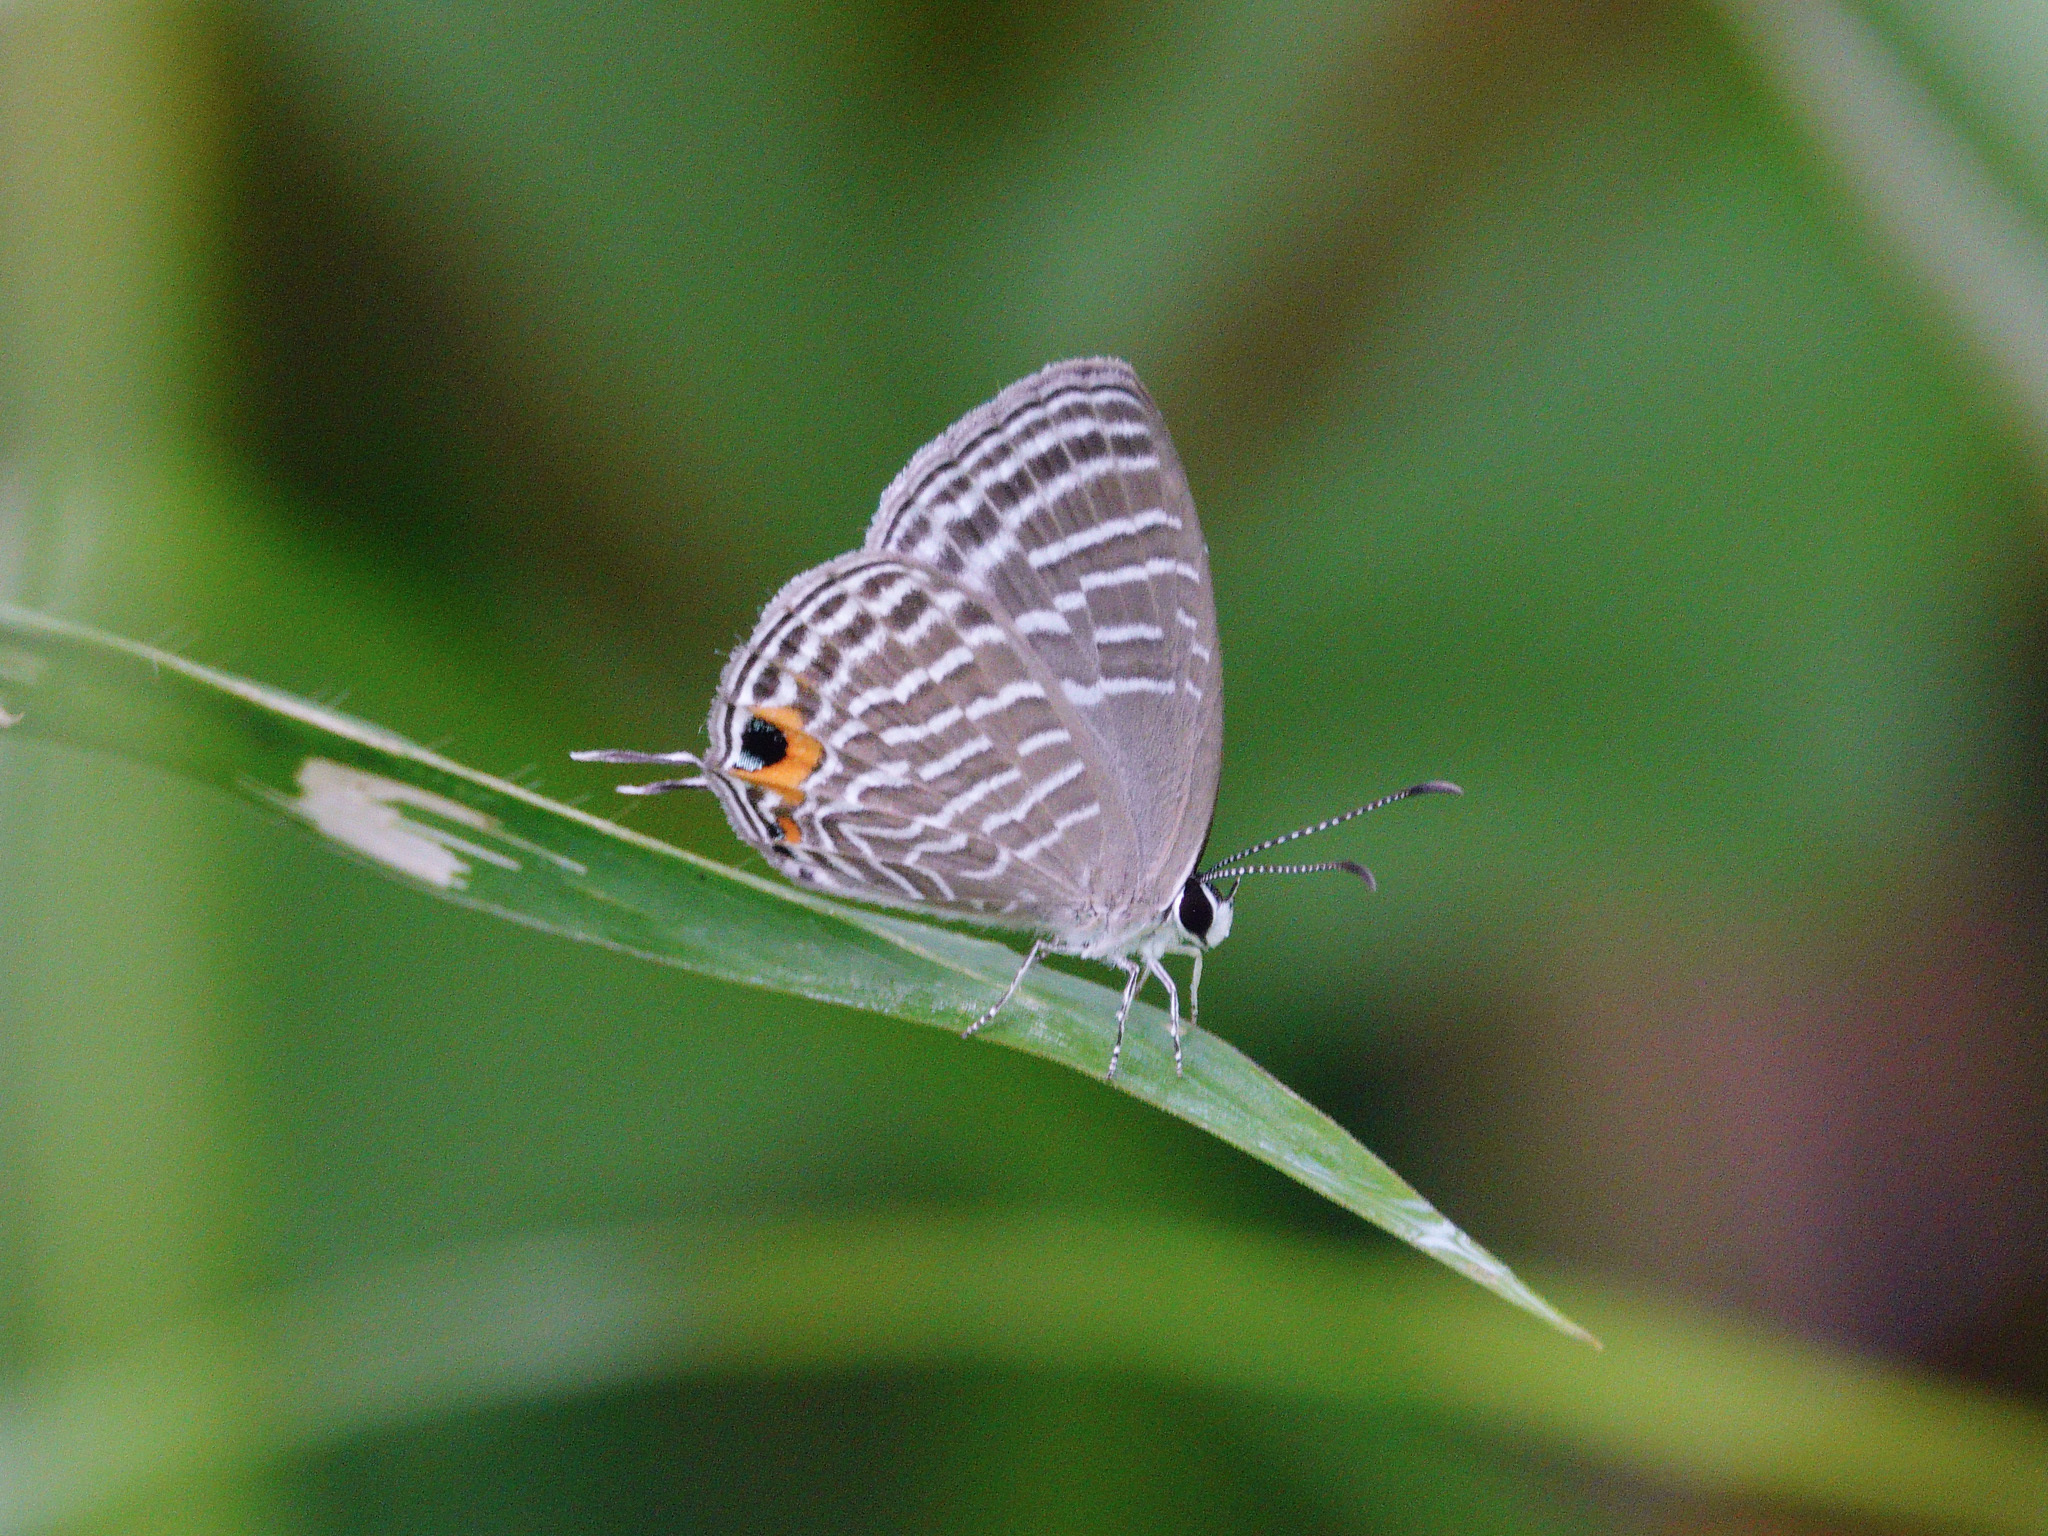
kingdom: Animalia
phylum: Arthropoda
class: Insecta
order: Lepidoptera
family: Lycaenidae
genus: Jamides
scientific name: Jamides celeno
